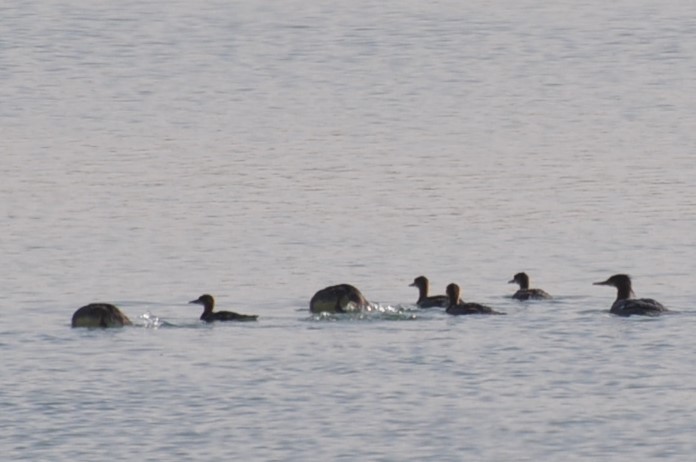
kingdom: Animalia
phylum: Chordata
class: Aves
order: Anseriformes
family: Anatidae
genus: Mergus
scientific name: Mergus merganser
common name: Common merganser
